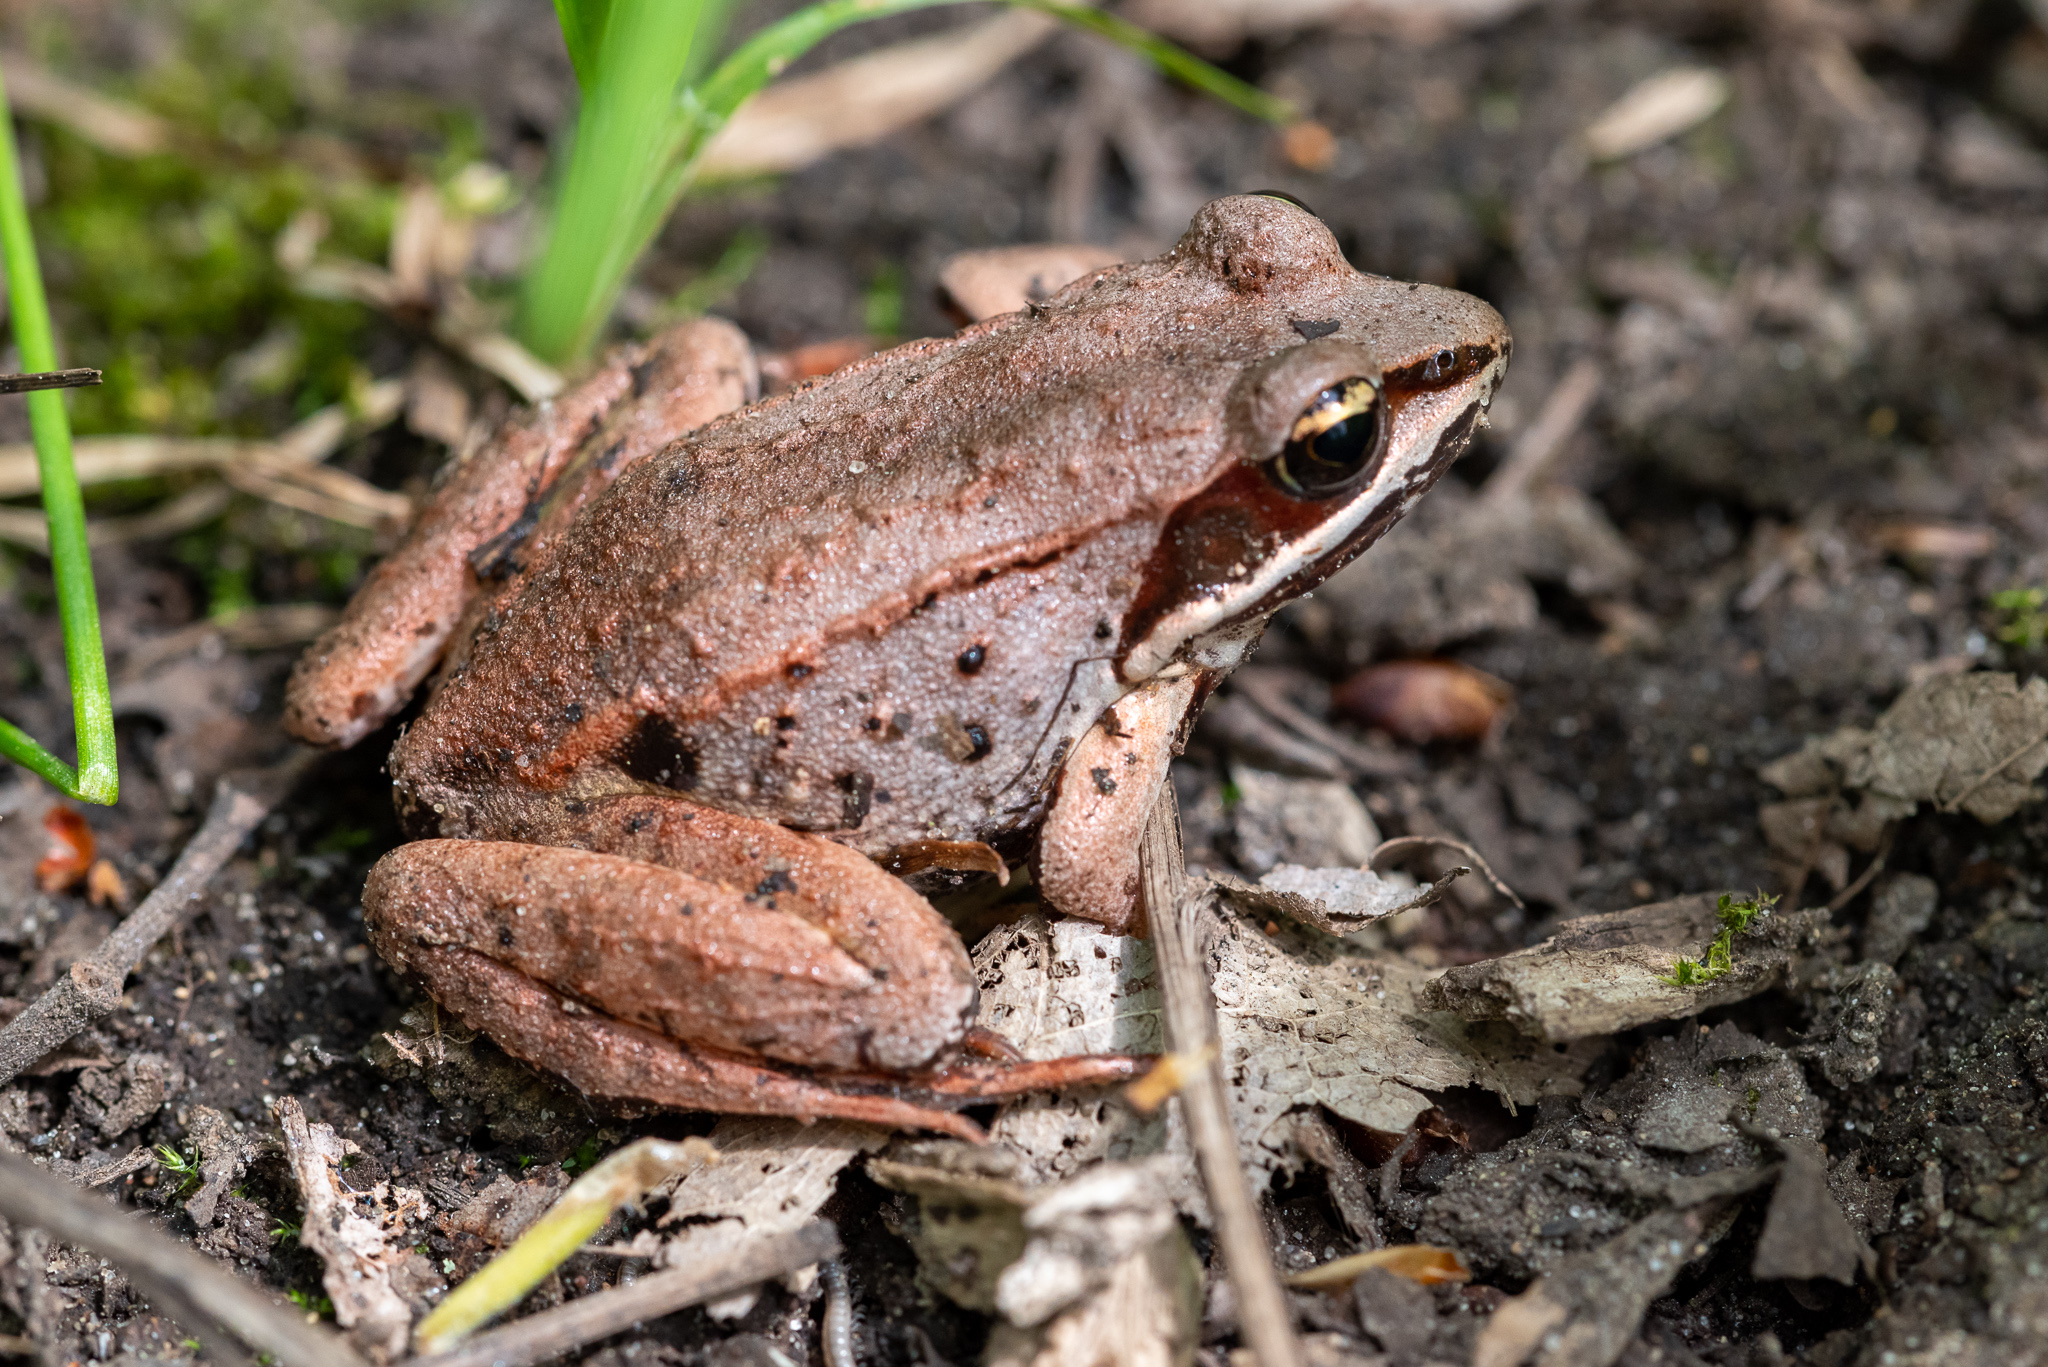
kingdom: Animalia
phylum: Chordata
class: Amphibia
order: Anura
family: Ranidae
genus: Lithobates
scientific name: Lithobates sylvaticus
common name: Wood frog
